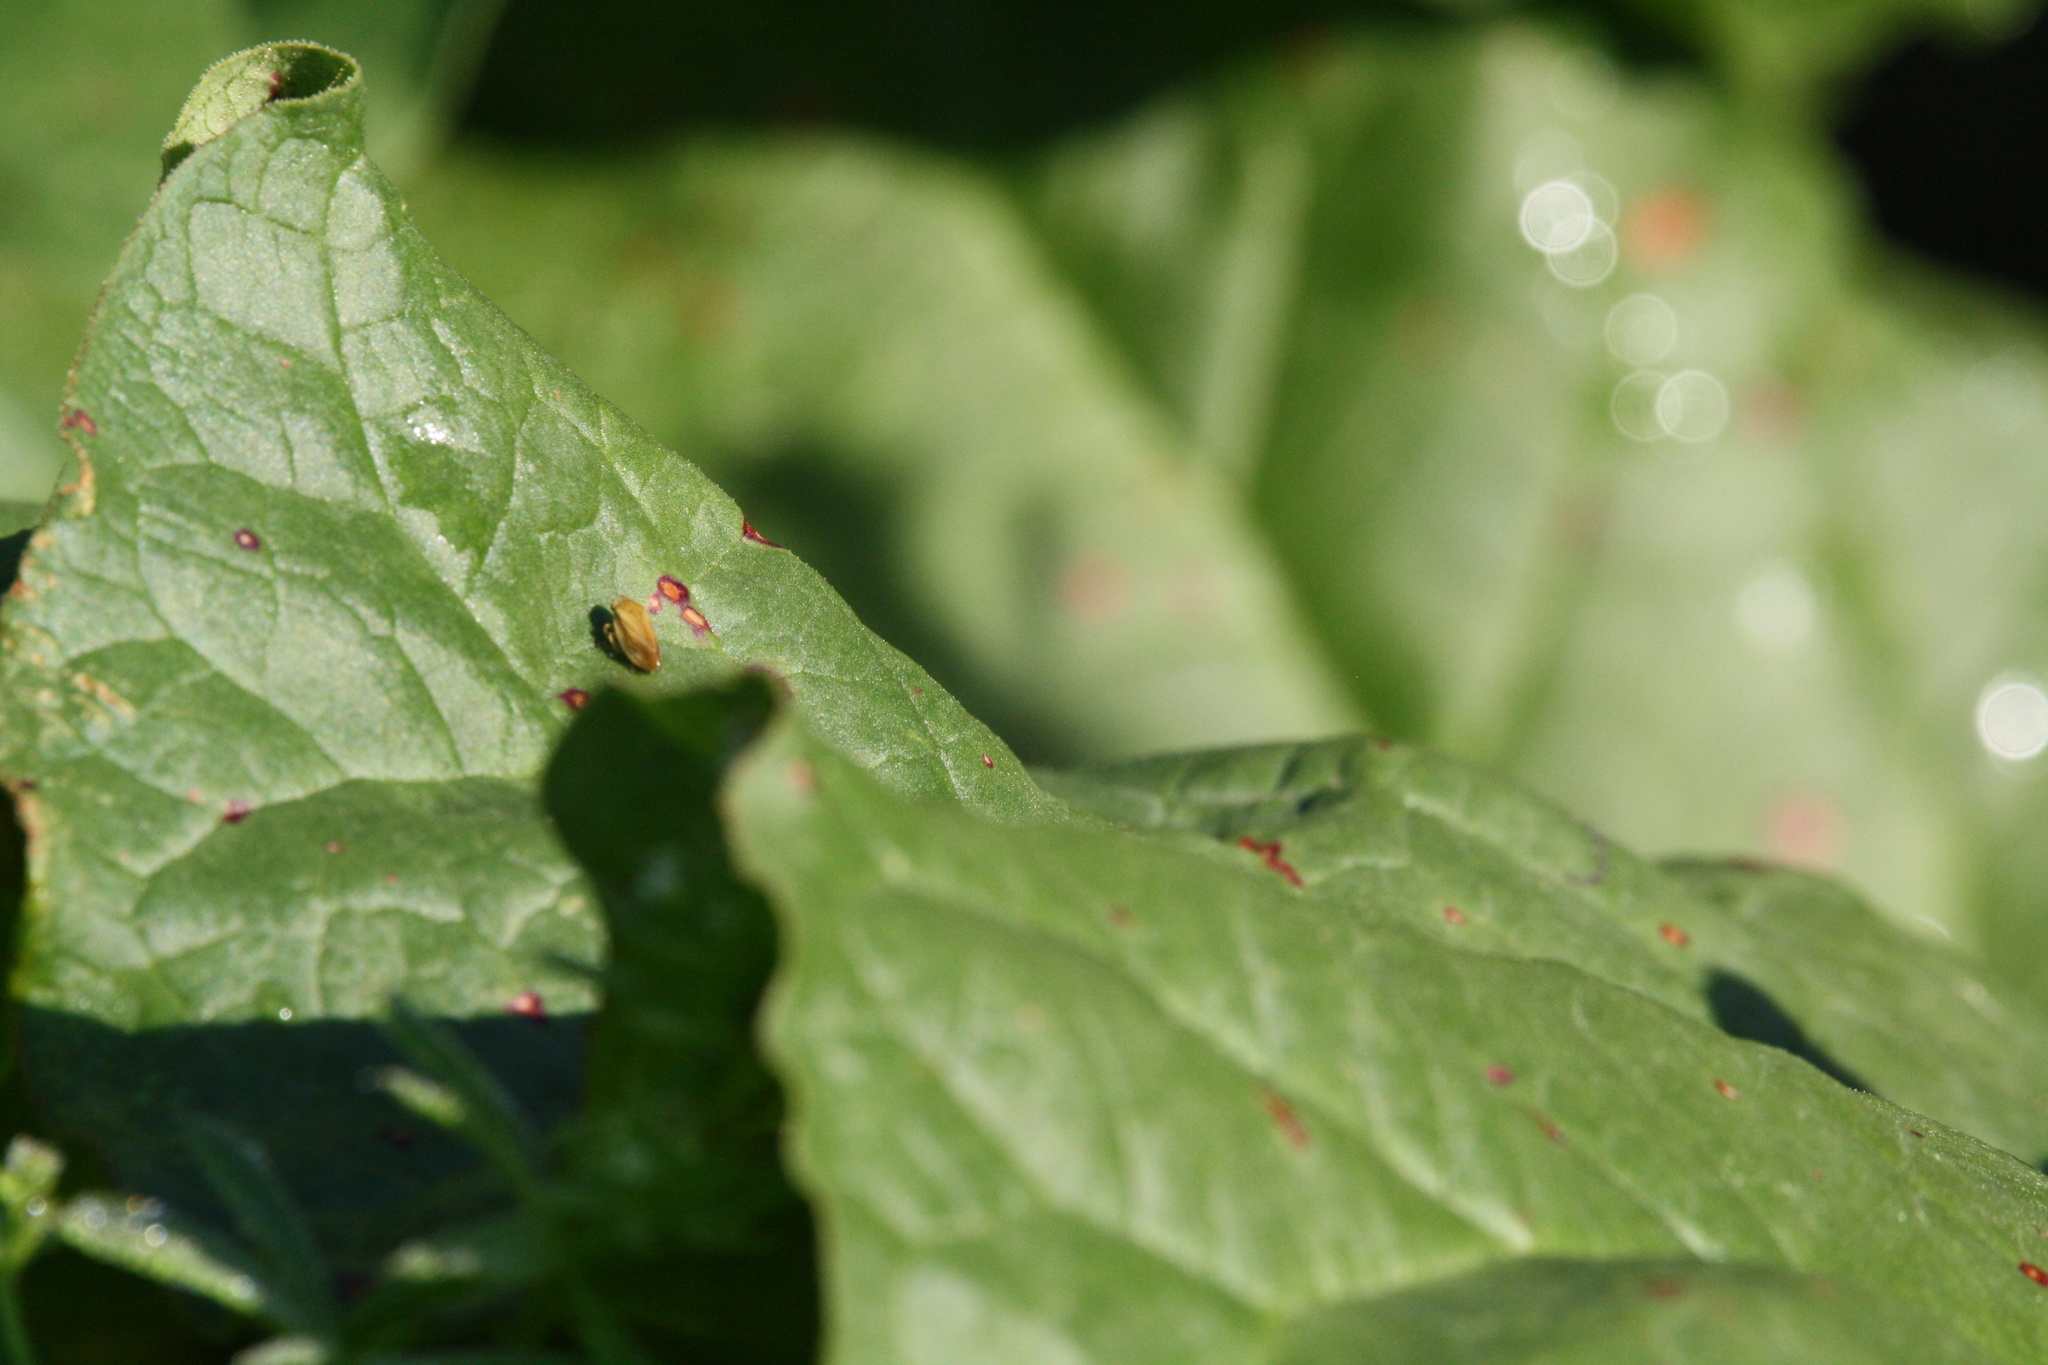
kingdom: Animalia
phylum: Arthropoda
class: Insecta
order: Hemiptera
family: Aphrophoridae
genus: Philaenus
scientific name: Philaenus spumarius
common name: Meadow spittlebug
